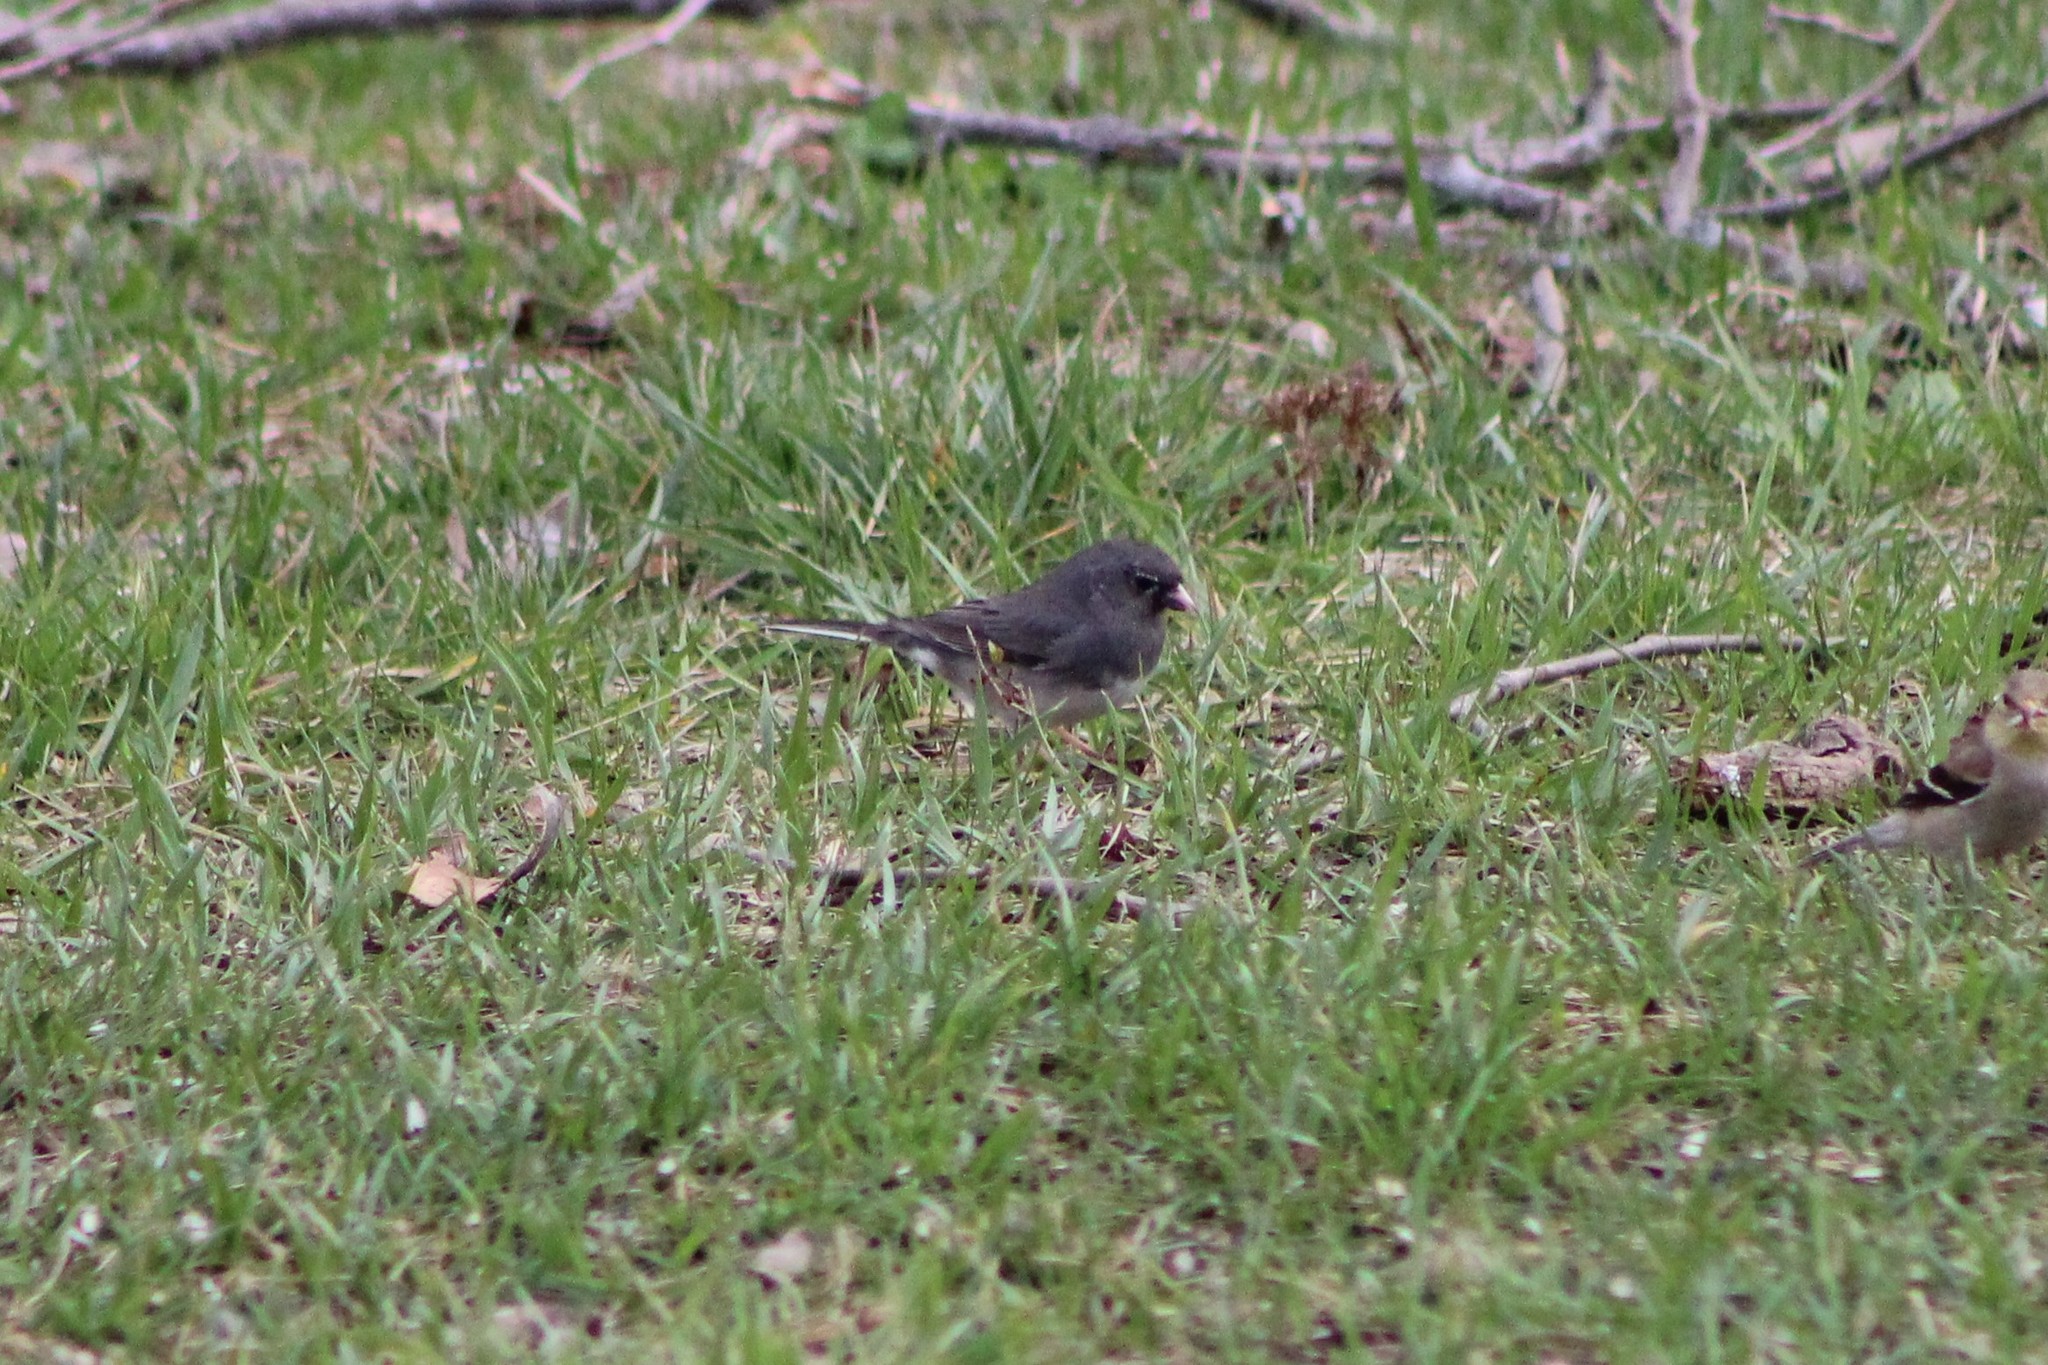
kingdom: Animalia
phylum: Chordata
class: Aves
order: Passeriformes
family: Passerellidae
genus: Junco
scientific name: Junco hyemalis
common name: Dark-eyed junco
